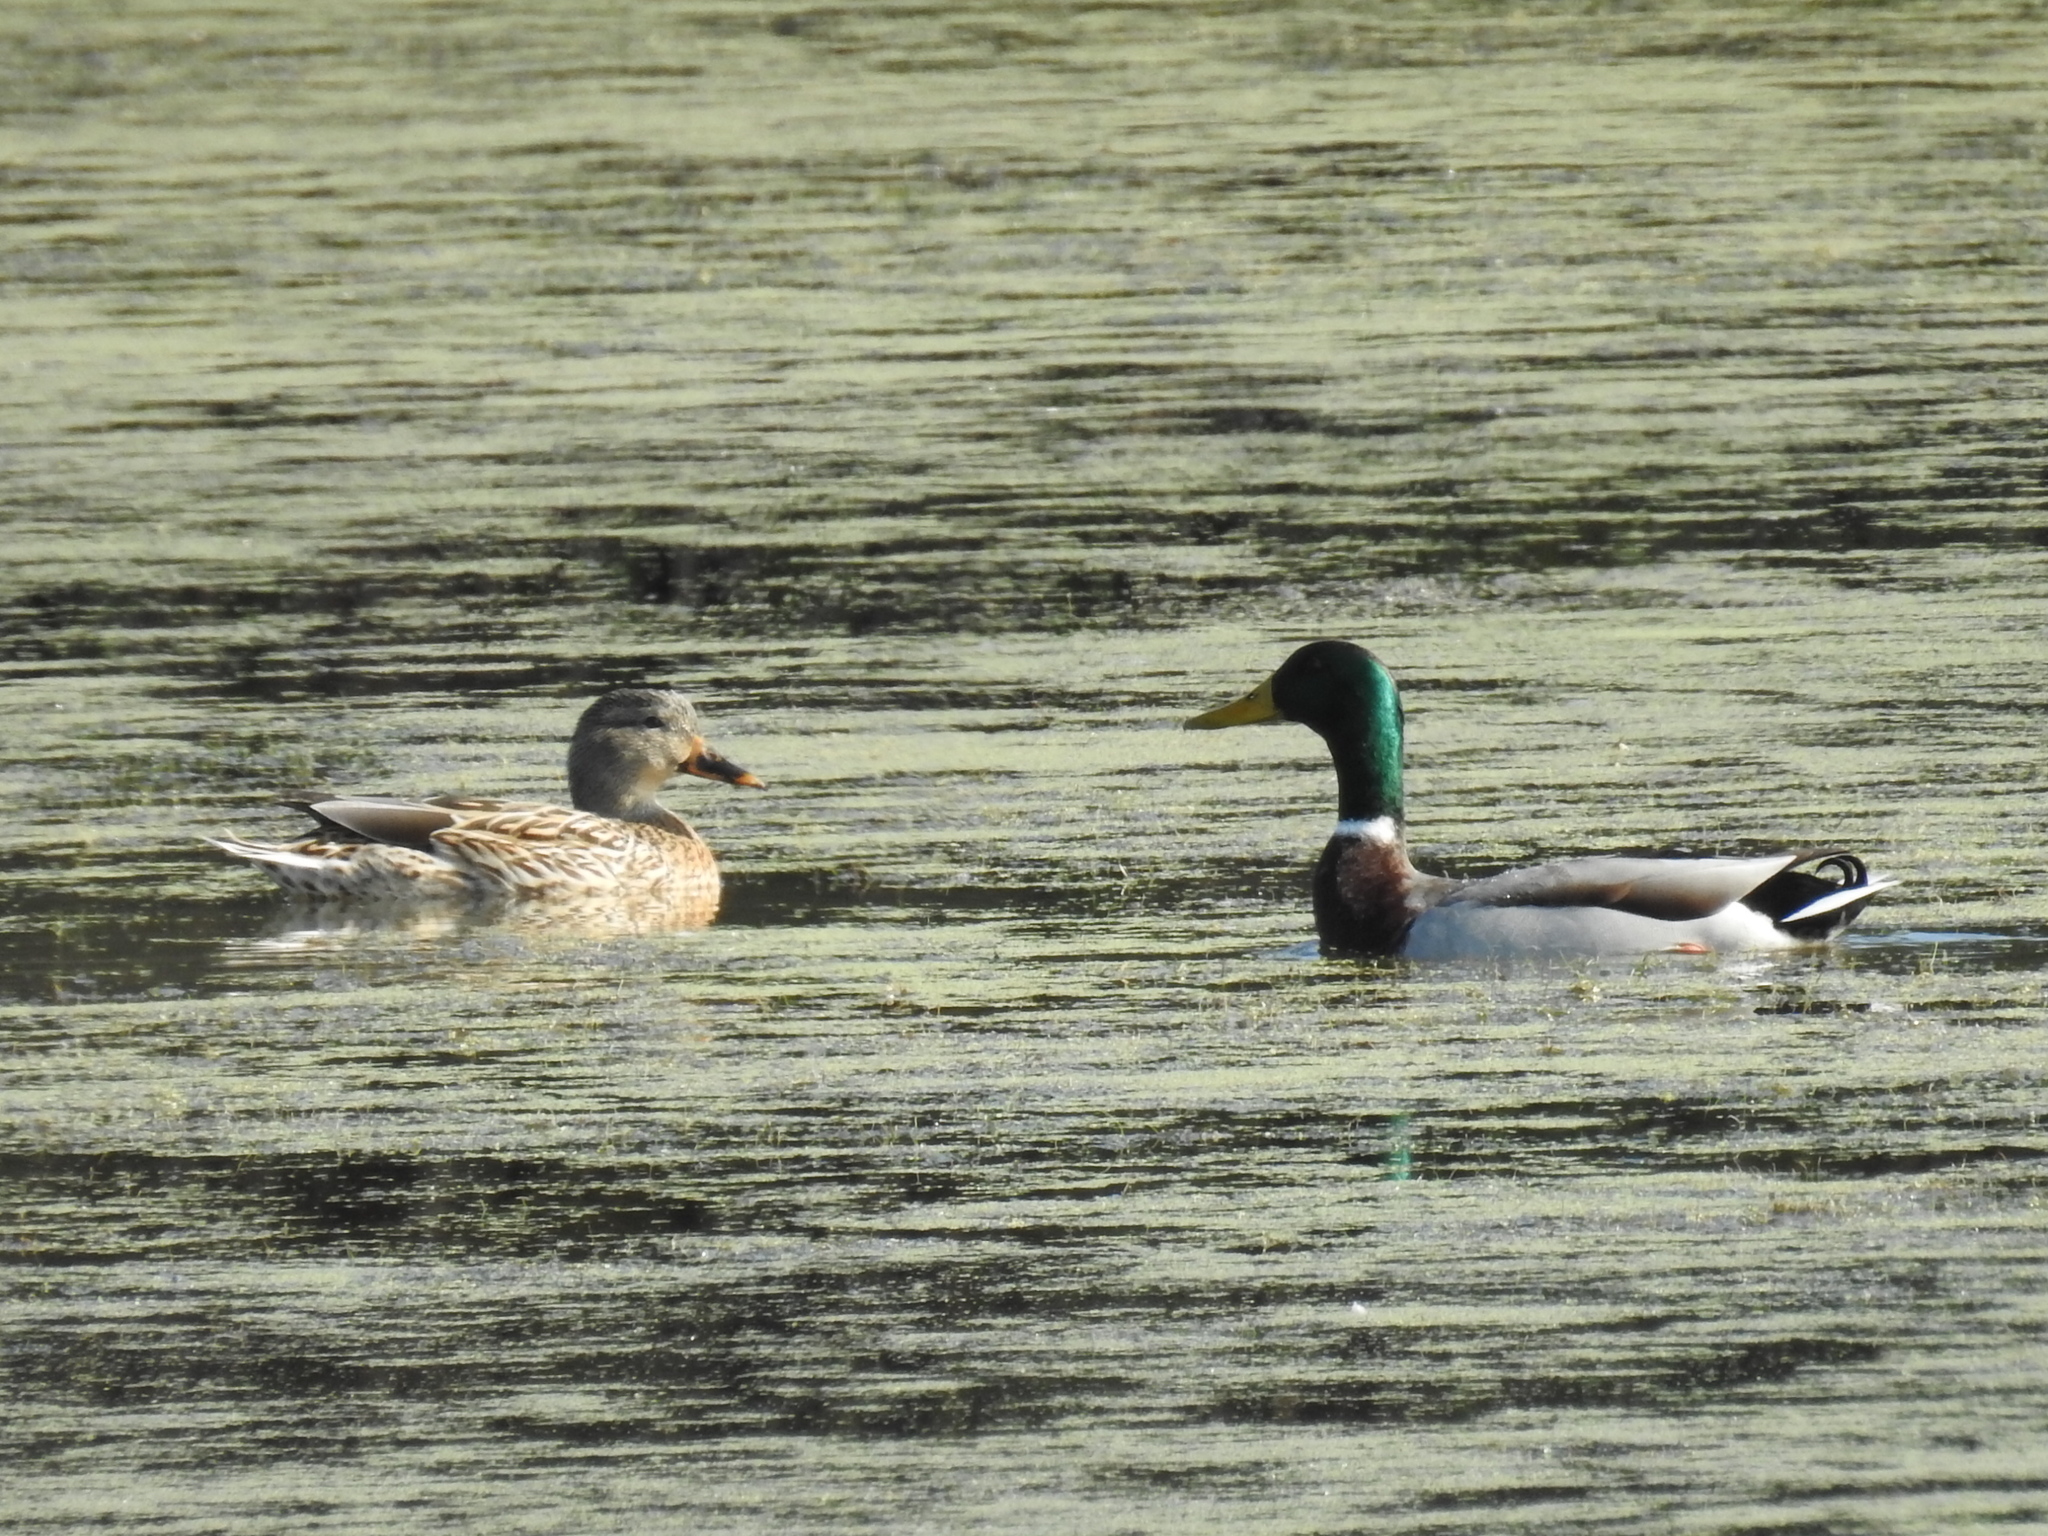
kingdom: Animalia
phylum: Chordata
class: Aves
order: Anseriformes
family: Anatidae
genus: Anas
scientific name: Anas platyrhynchos
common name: Mallard
